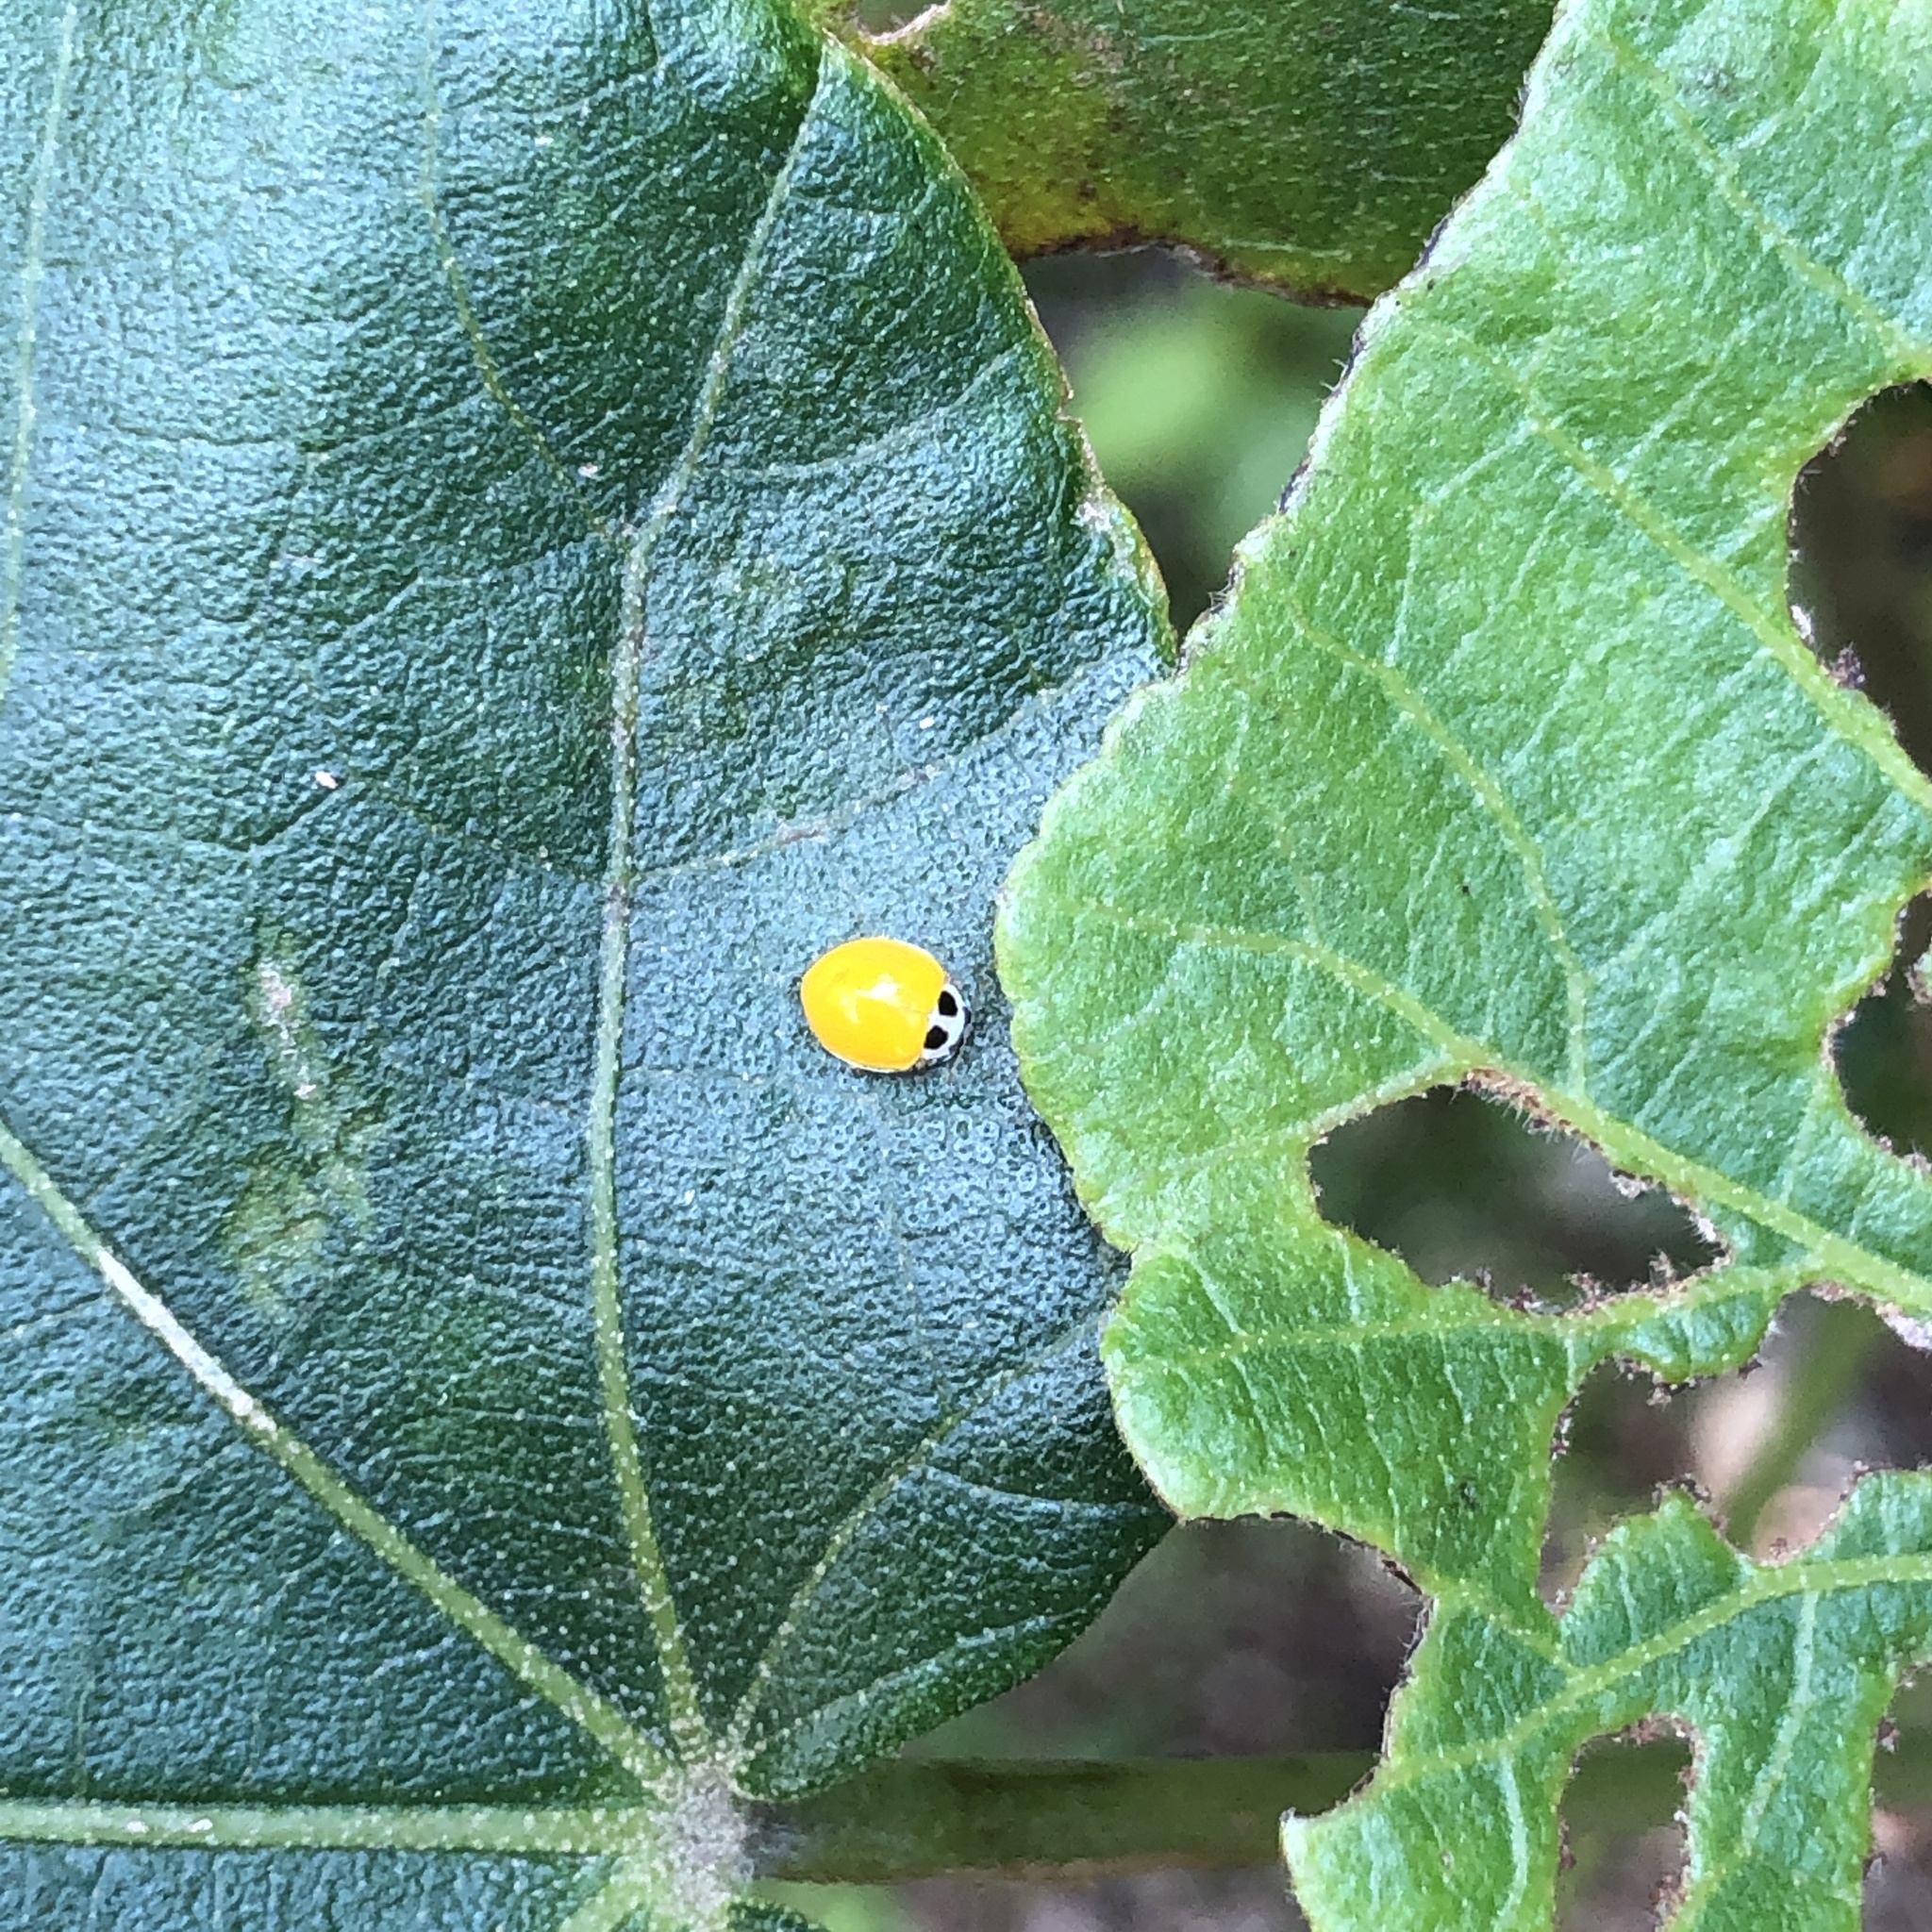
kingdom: Animalia
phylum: Arthropoda
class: Insecta
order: Coleoptera
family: Coccinellidae
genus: Illeis
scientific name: Illeis koebelei
